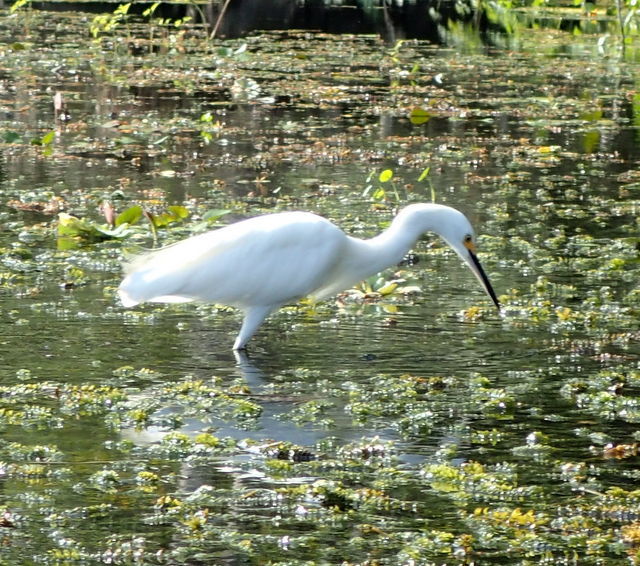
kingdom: Animalia
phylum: Chordata
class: Aves
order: Pelecaniformes
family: Ardeidae
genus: Egretta
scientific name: Egretta thula
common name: Snowy egret
